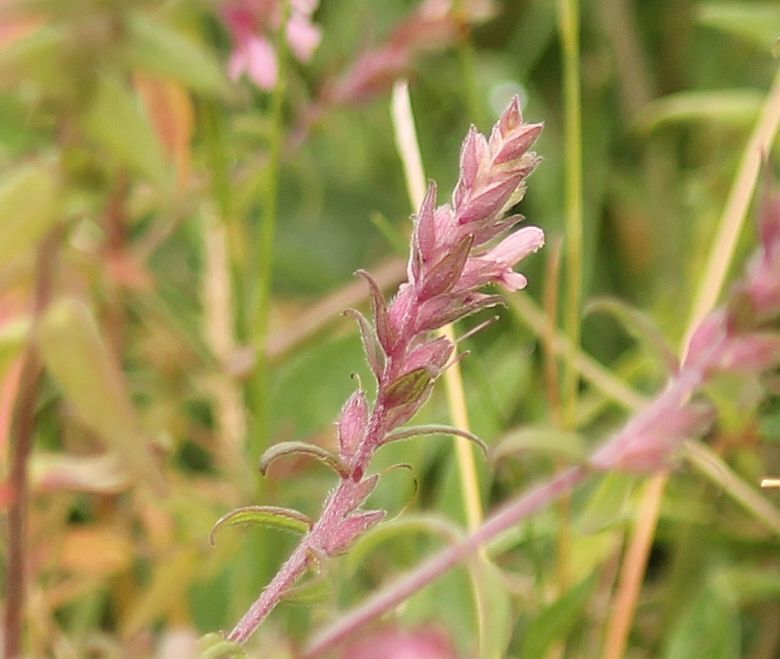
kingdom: Plantae
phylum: Tracheophyta
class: Magnoliopsida
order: Lamiales
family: Orobanchaceae
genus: Odontites
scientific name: Odontites vernus
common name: Red bartsia
